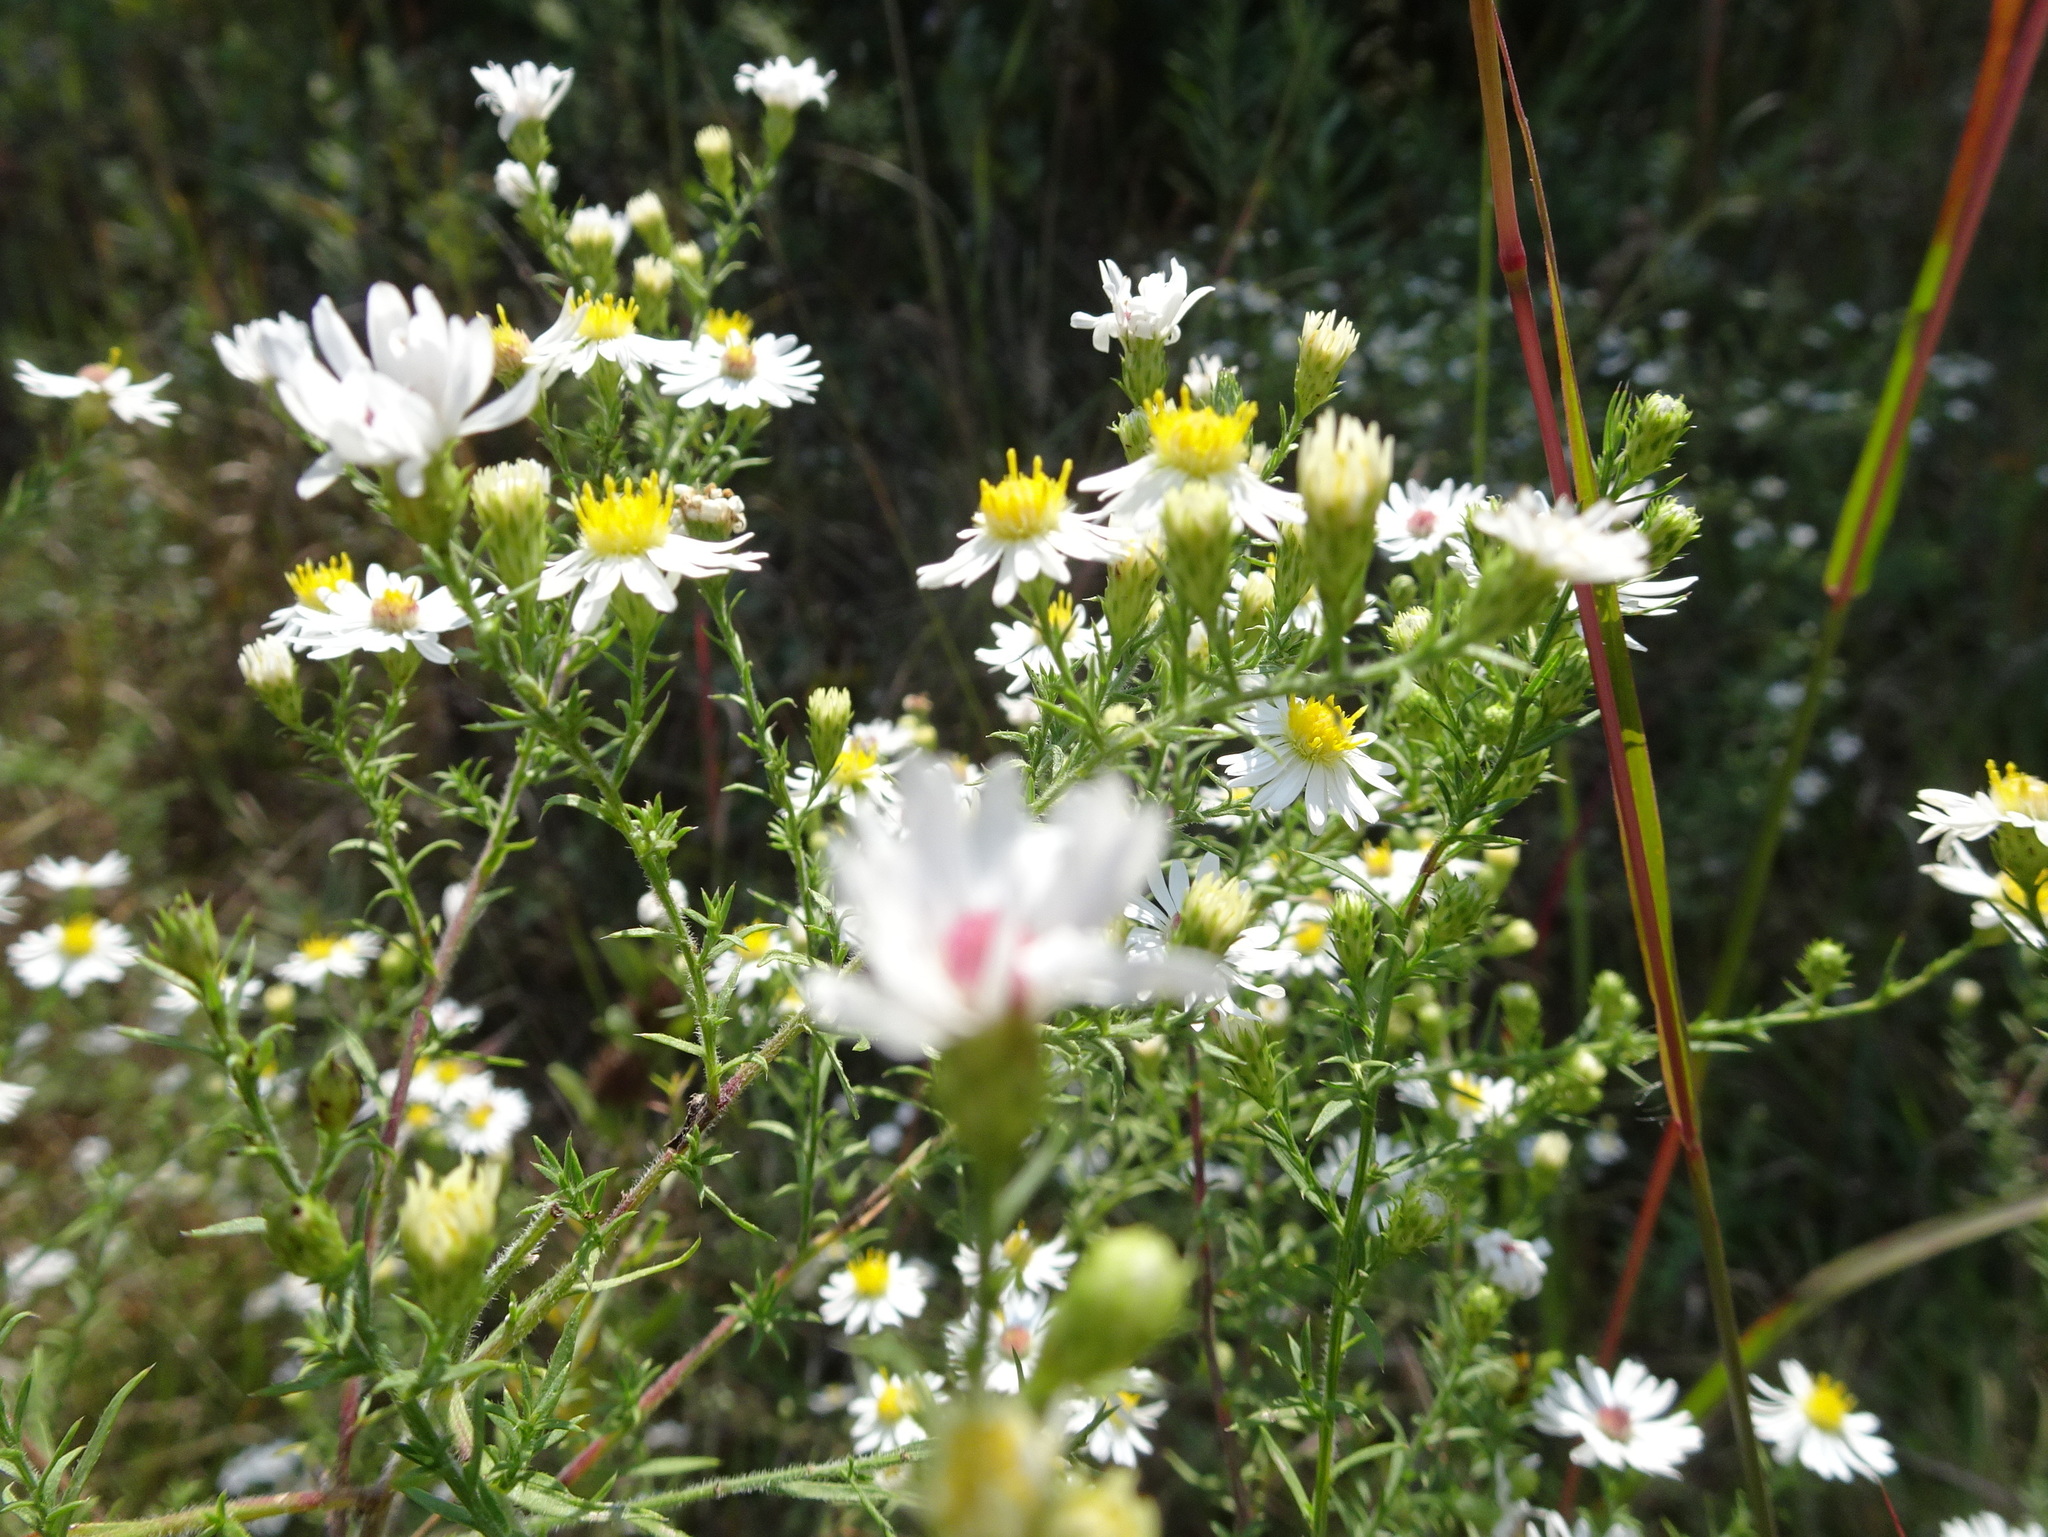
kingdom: Plantae
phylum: Tracheophyta
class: Magnoliopsida
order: Asterales
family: Asteraceae
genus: Symphyotrichum
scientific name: Symphyotrichum pilosum
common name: Awl aster
